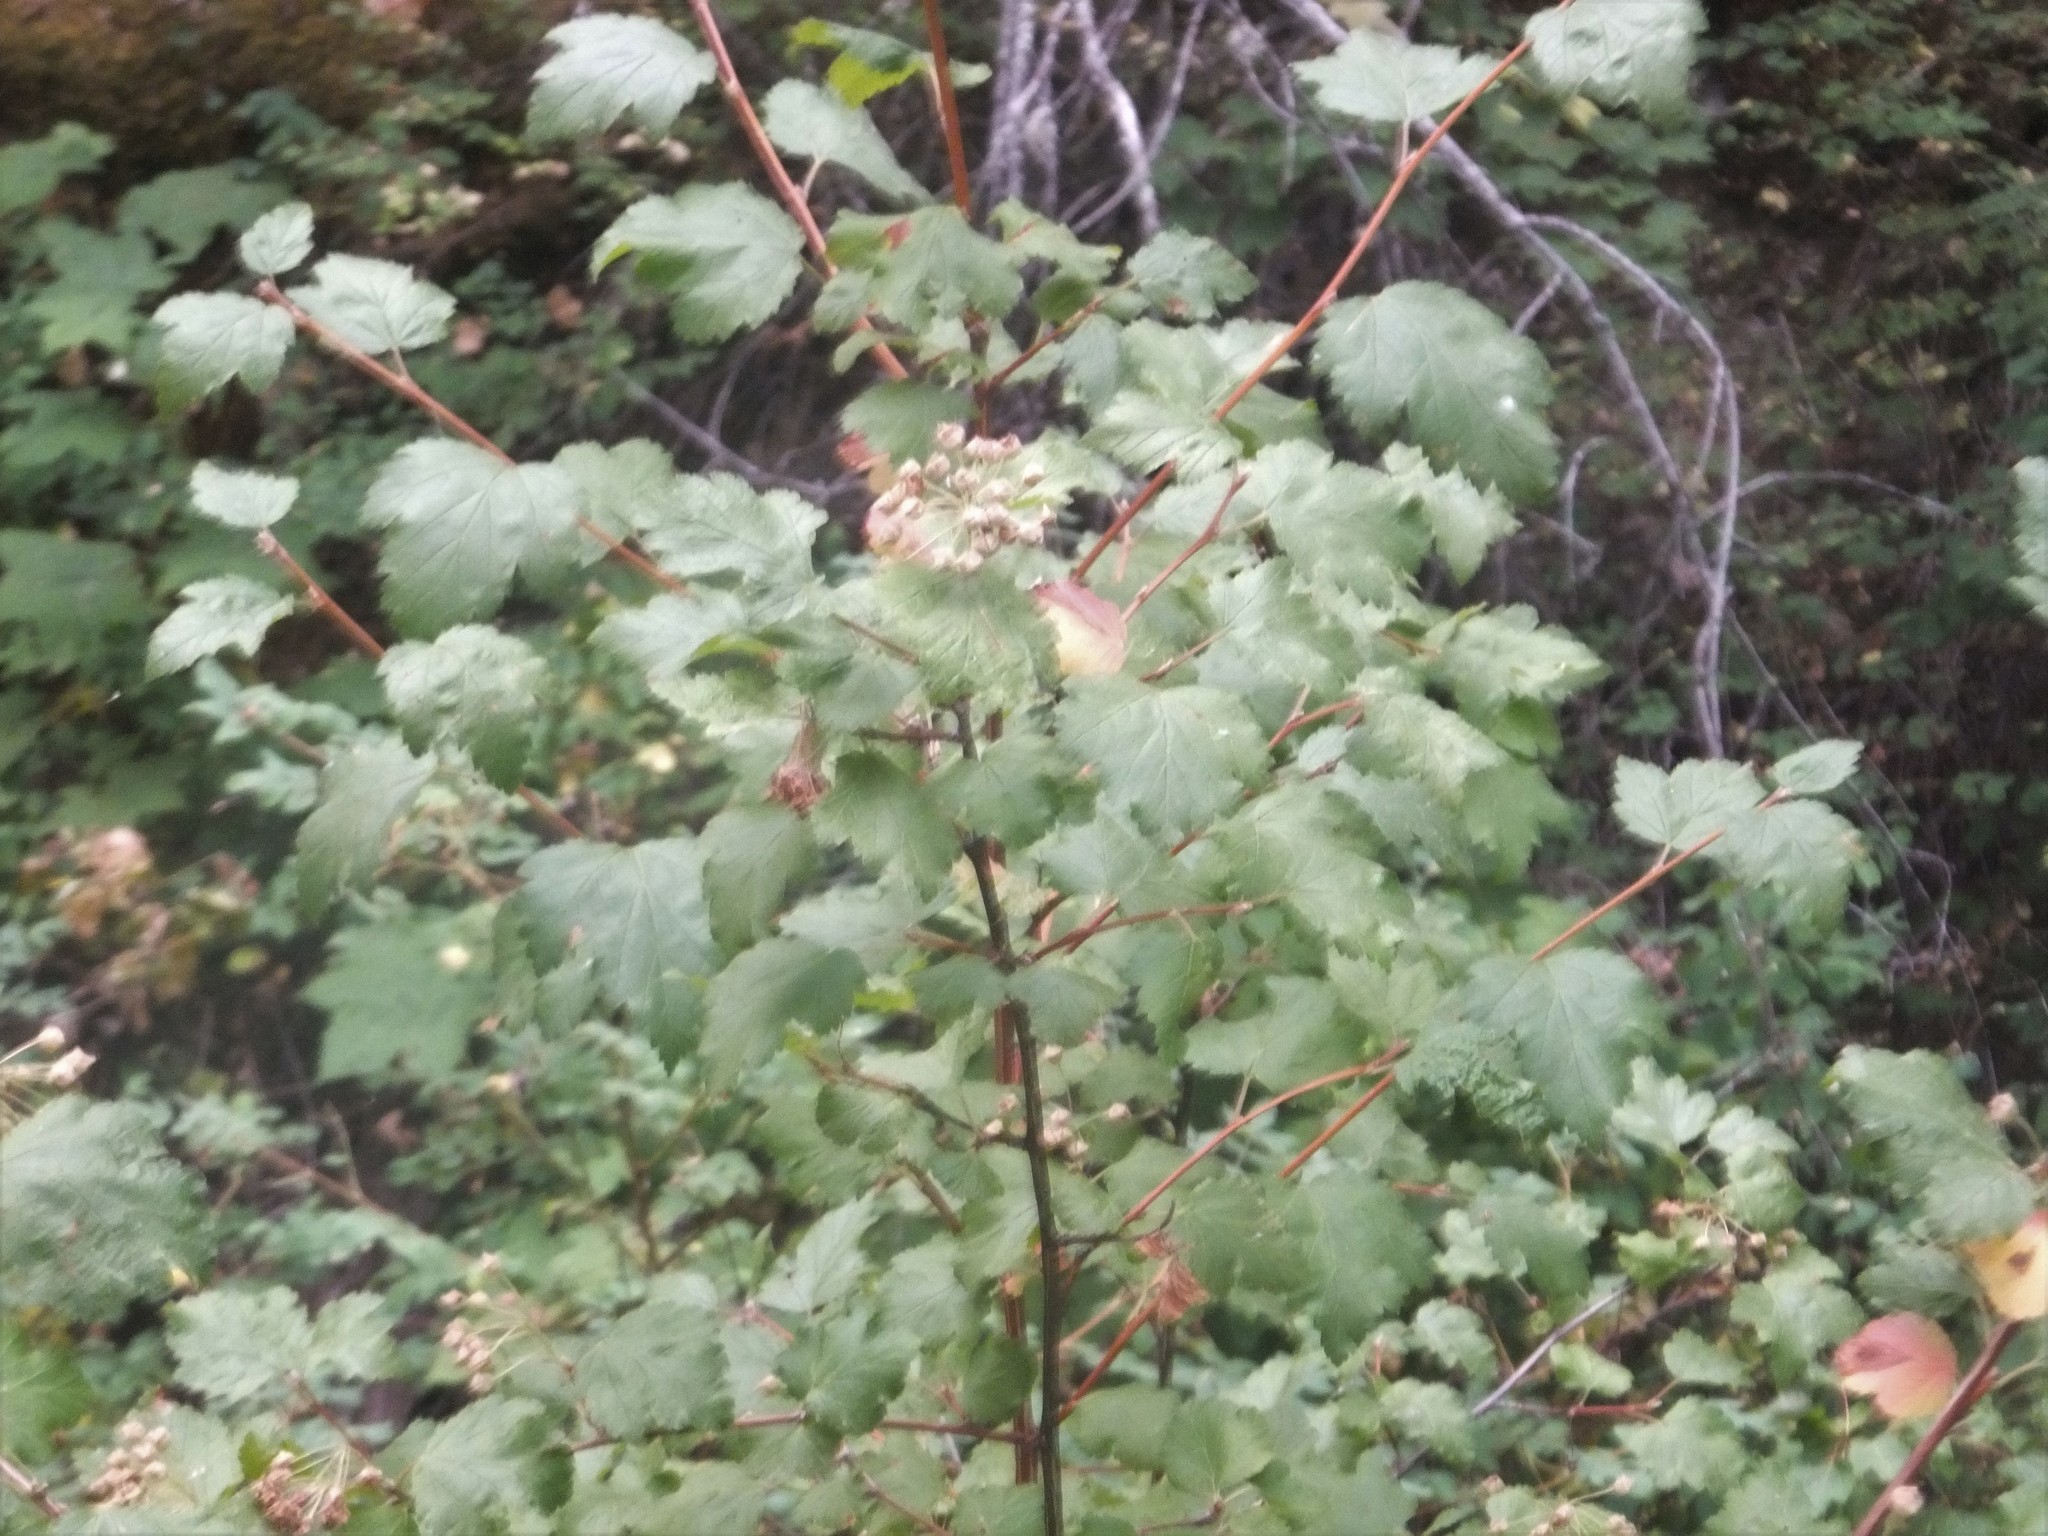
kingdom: Plantae
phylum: Tracheophyta
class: Magnoliopsida
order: Rosales
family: Rosaceae
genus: Physocarpus
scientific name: Physocarpus malvaceus
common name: Mallow ninebark
